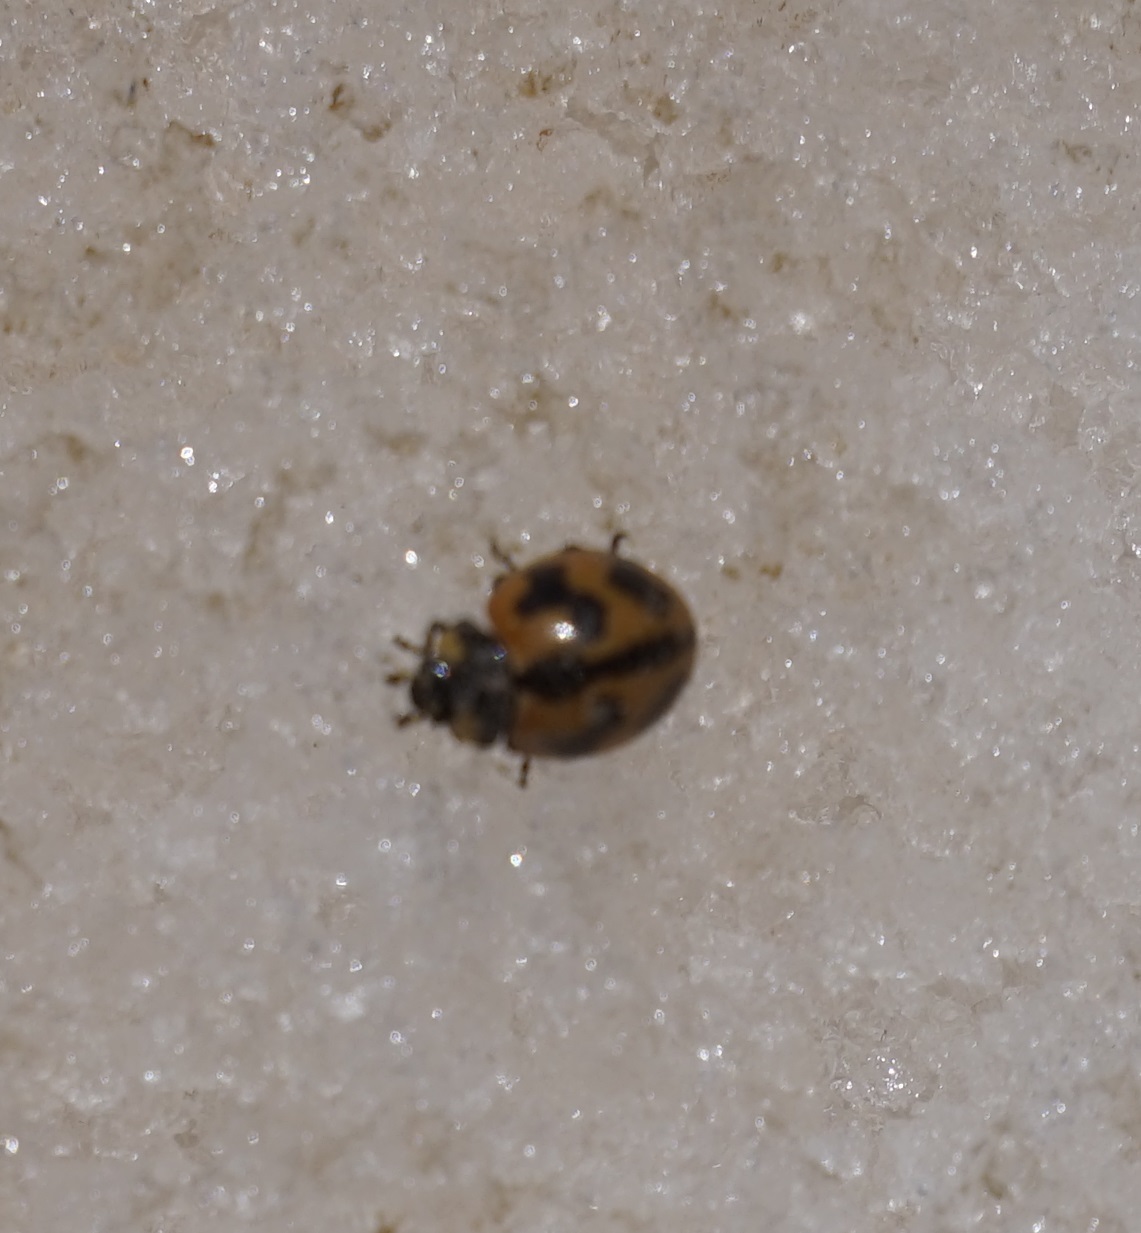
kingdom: Animalia
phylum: Arthropoda
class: Insecta
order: Coleoptera
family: Coccinellidae
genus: Coccinella
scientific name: Coccinella transversalis
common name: Transverse lady beetle
